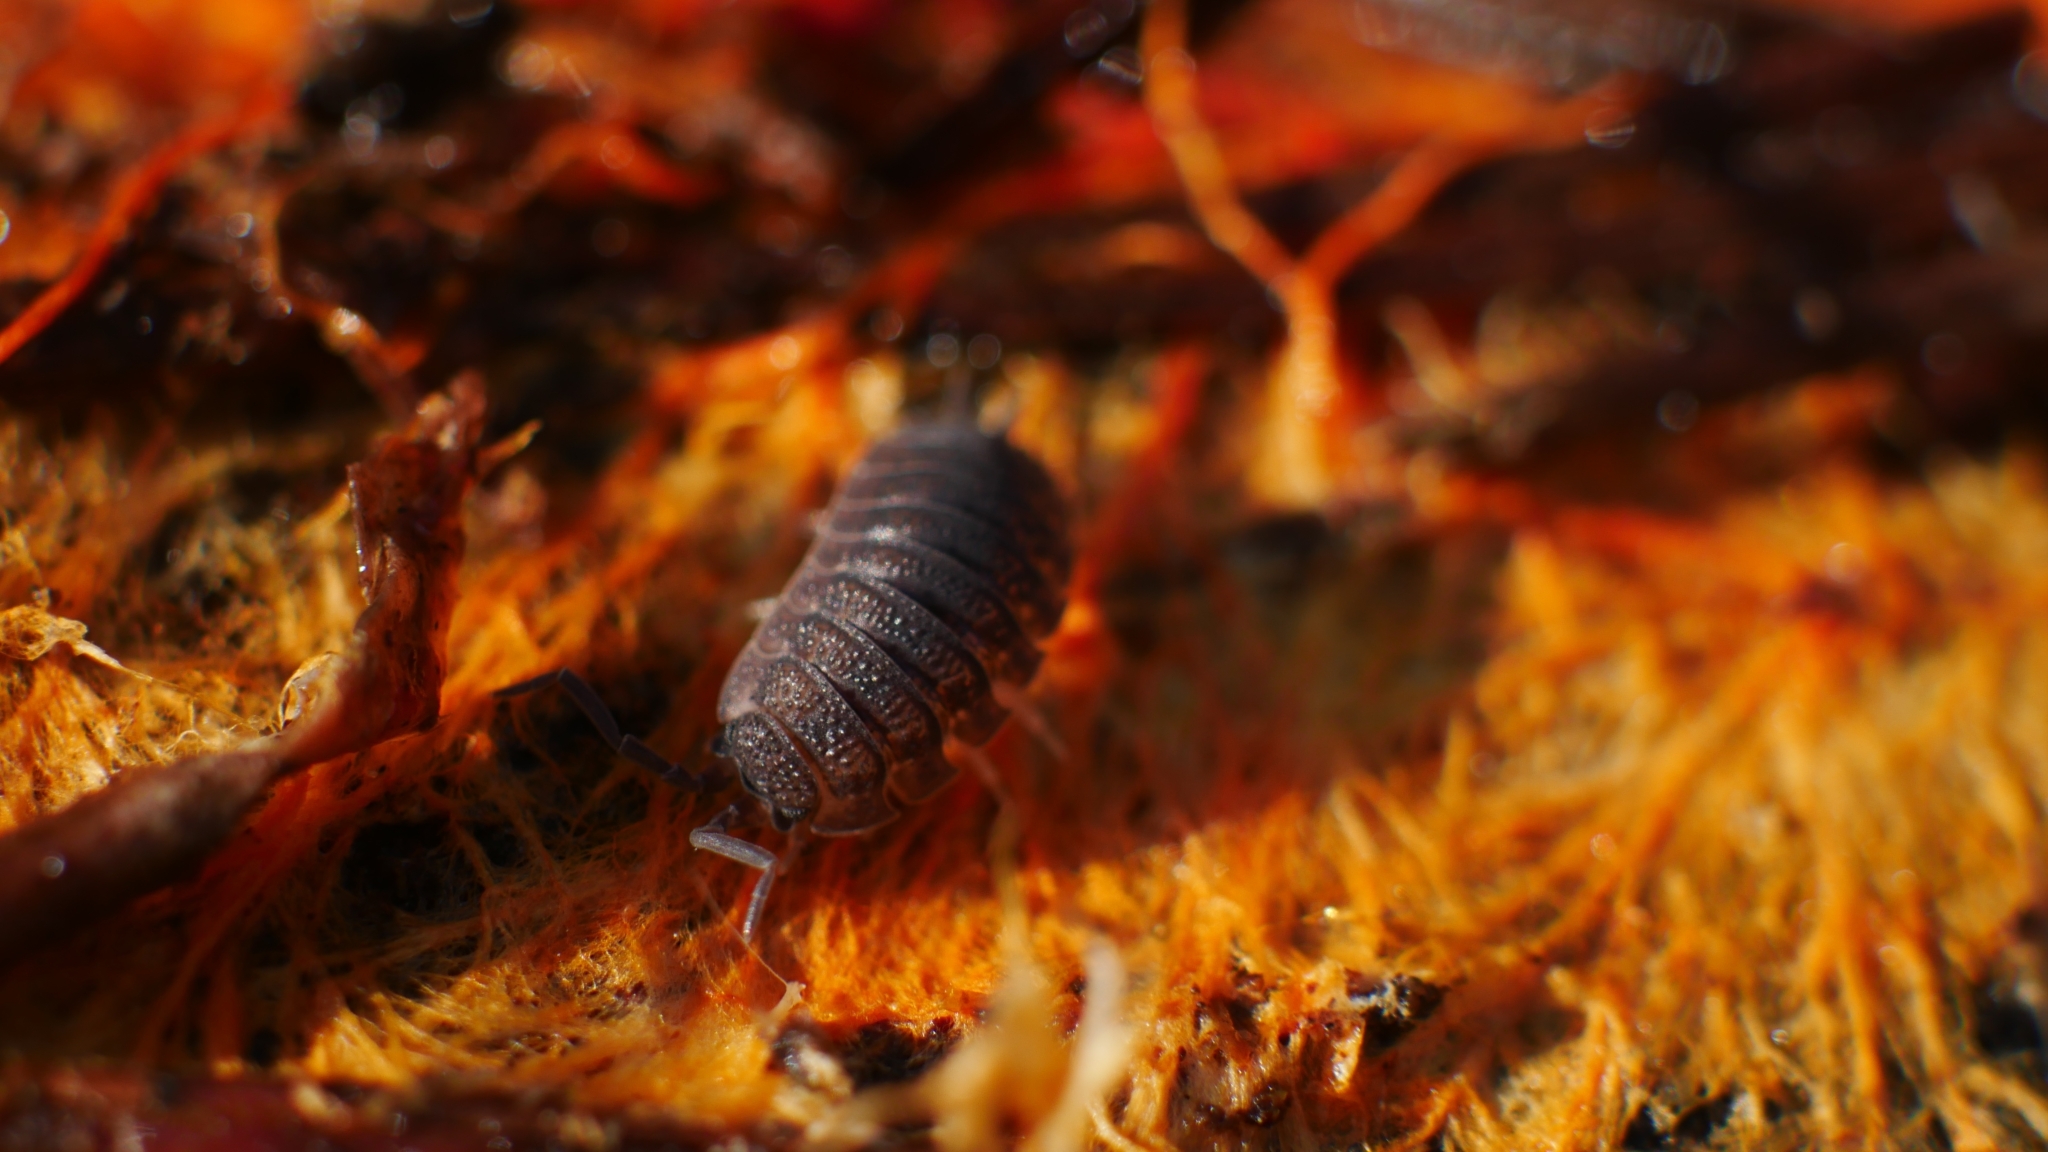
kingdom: Animalia
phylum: Arthropoda
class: Malacostraca
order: Isopoda
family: Porcellionidae
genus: Porcellio
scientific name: Porcellio scaber
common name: Common rough woodlouse
